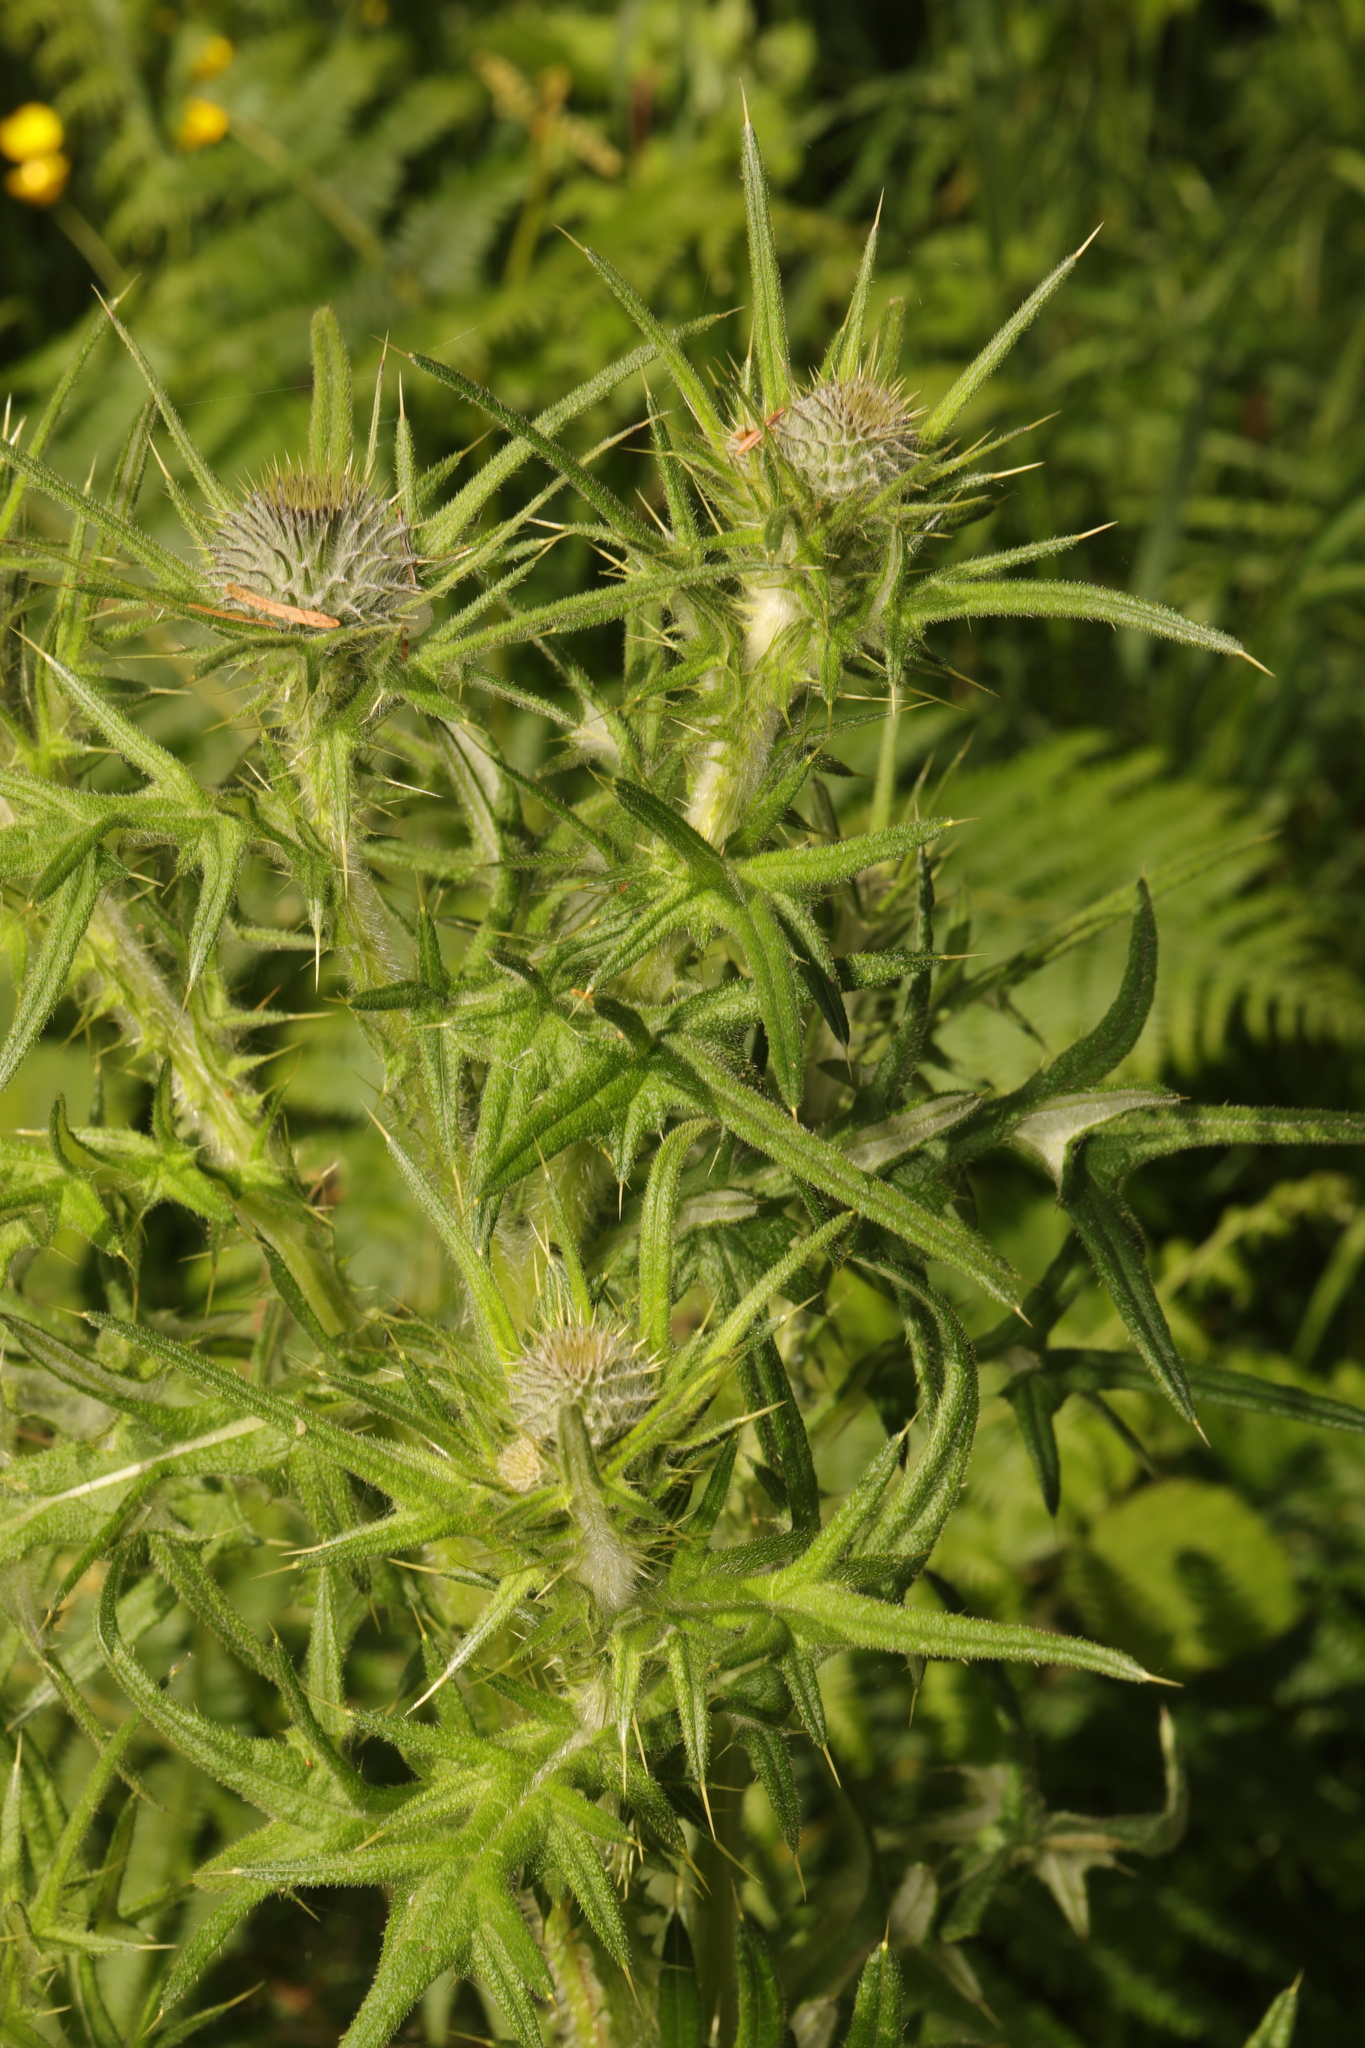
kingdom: Plantae
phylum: Tracheophyta
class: Magnoliopsida
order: Asterales
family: Asteraceae
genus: Cirsium
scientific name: Cirsium vulgare
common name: Bull thistle
